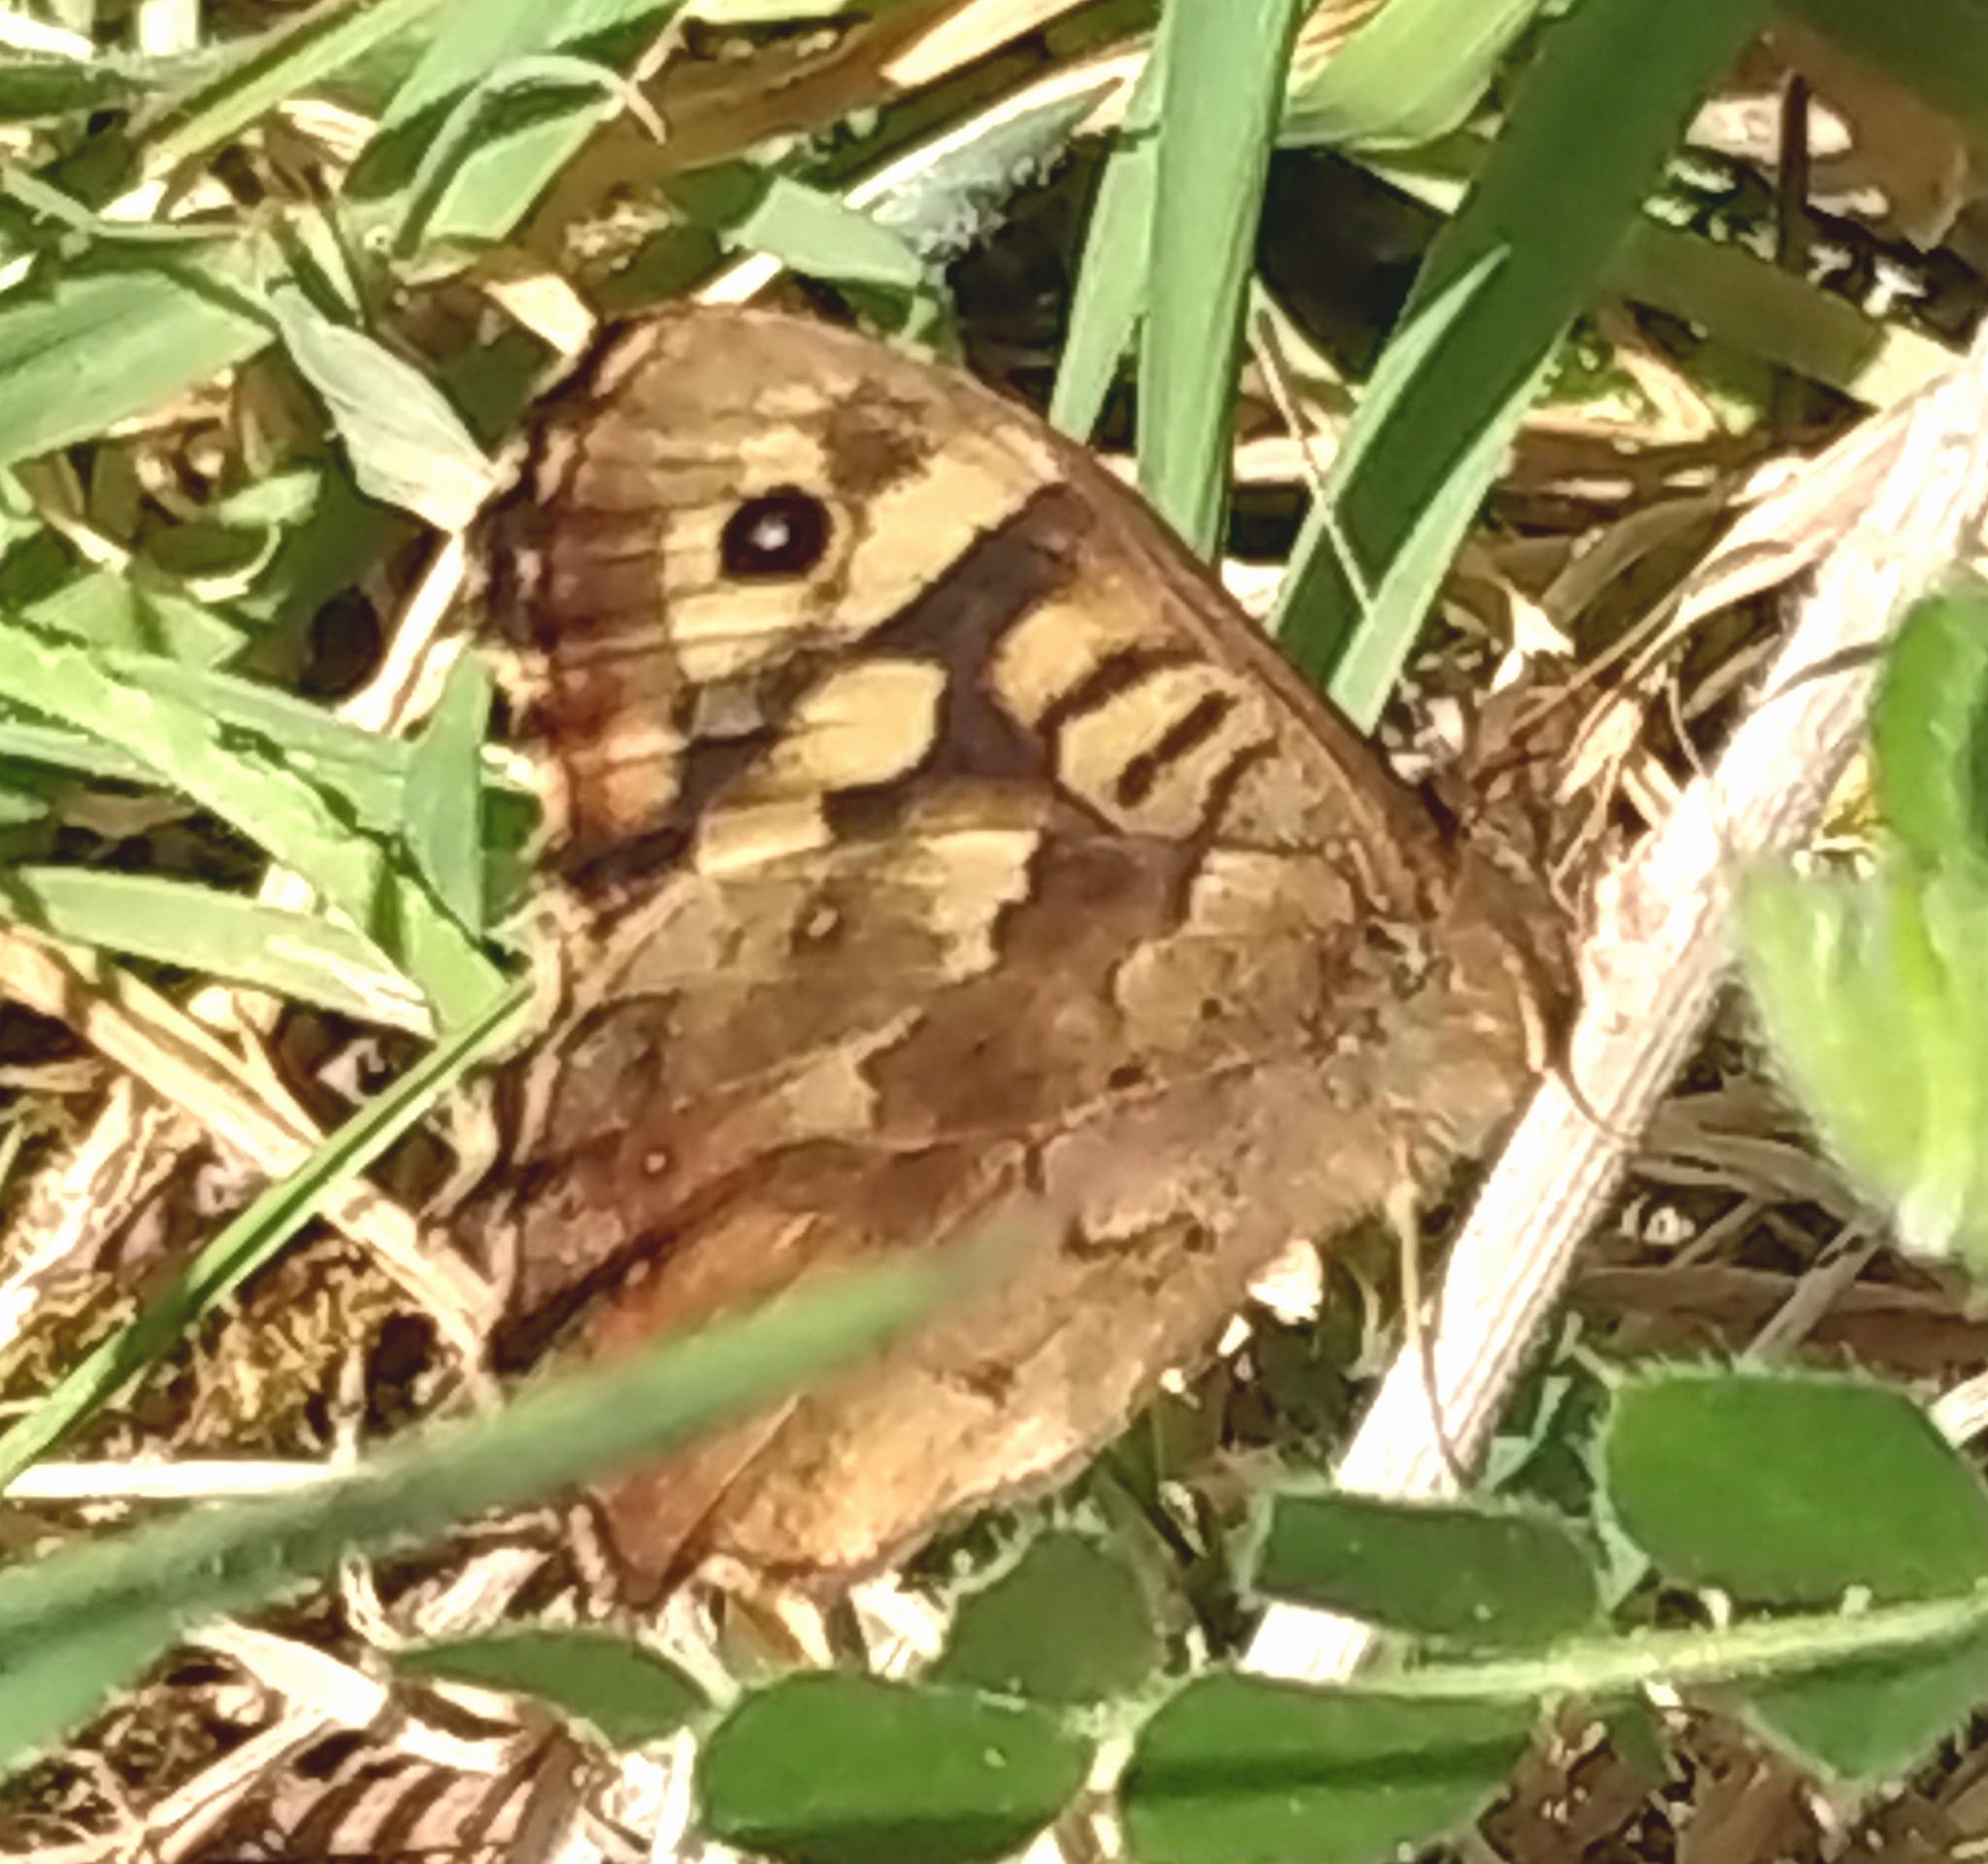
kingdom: Animalia
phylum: Arthropoda
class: Insecta
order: Lepidoptera
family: Nymphalidae
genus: Pararge
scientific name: Pararge aegeria
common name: Speckled wood
